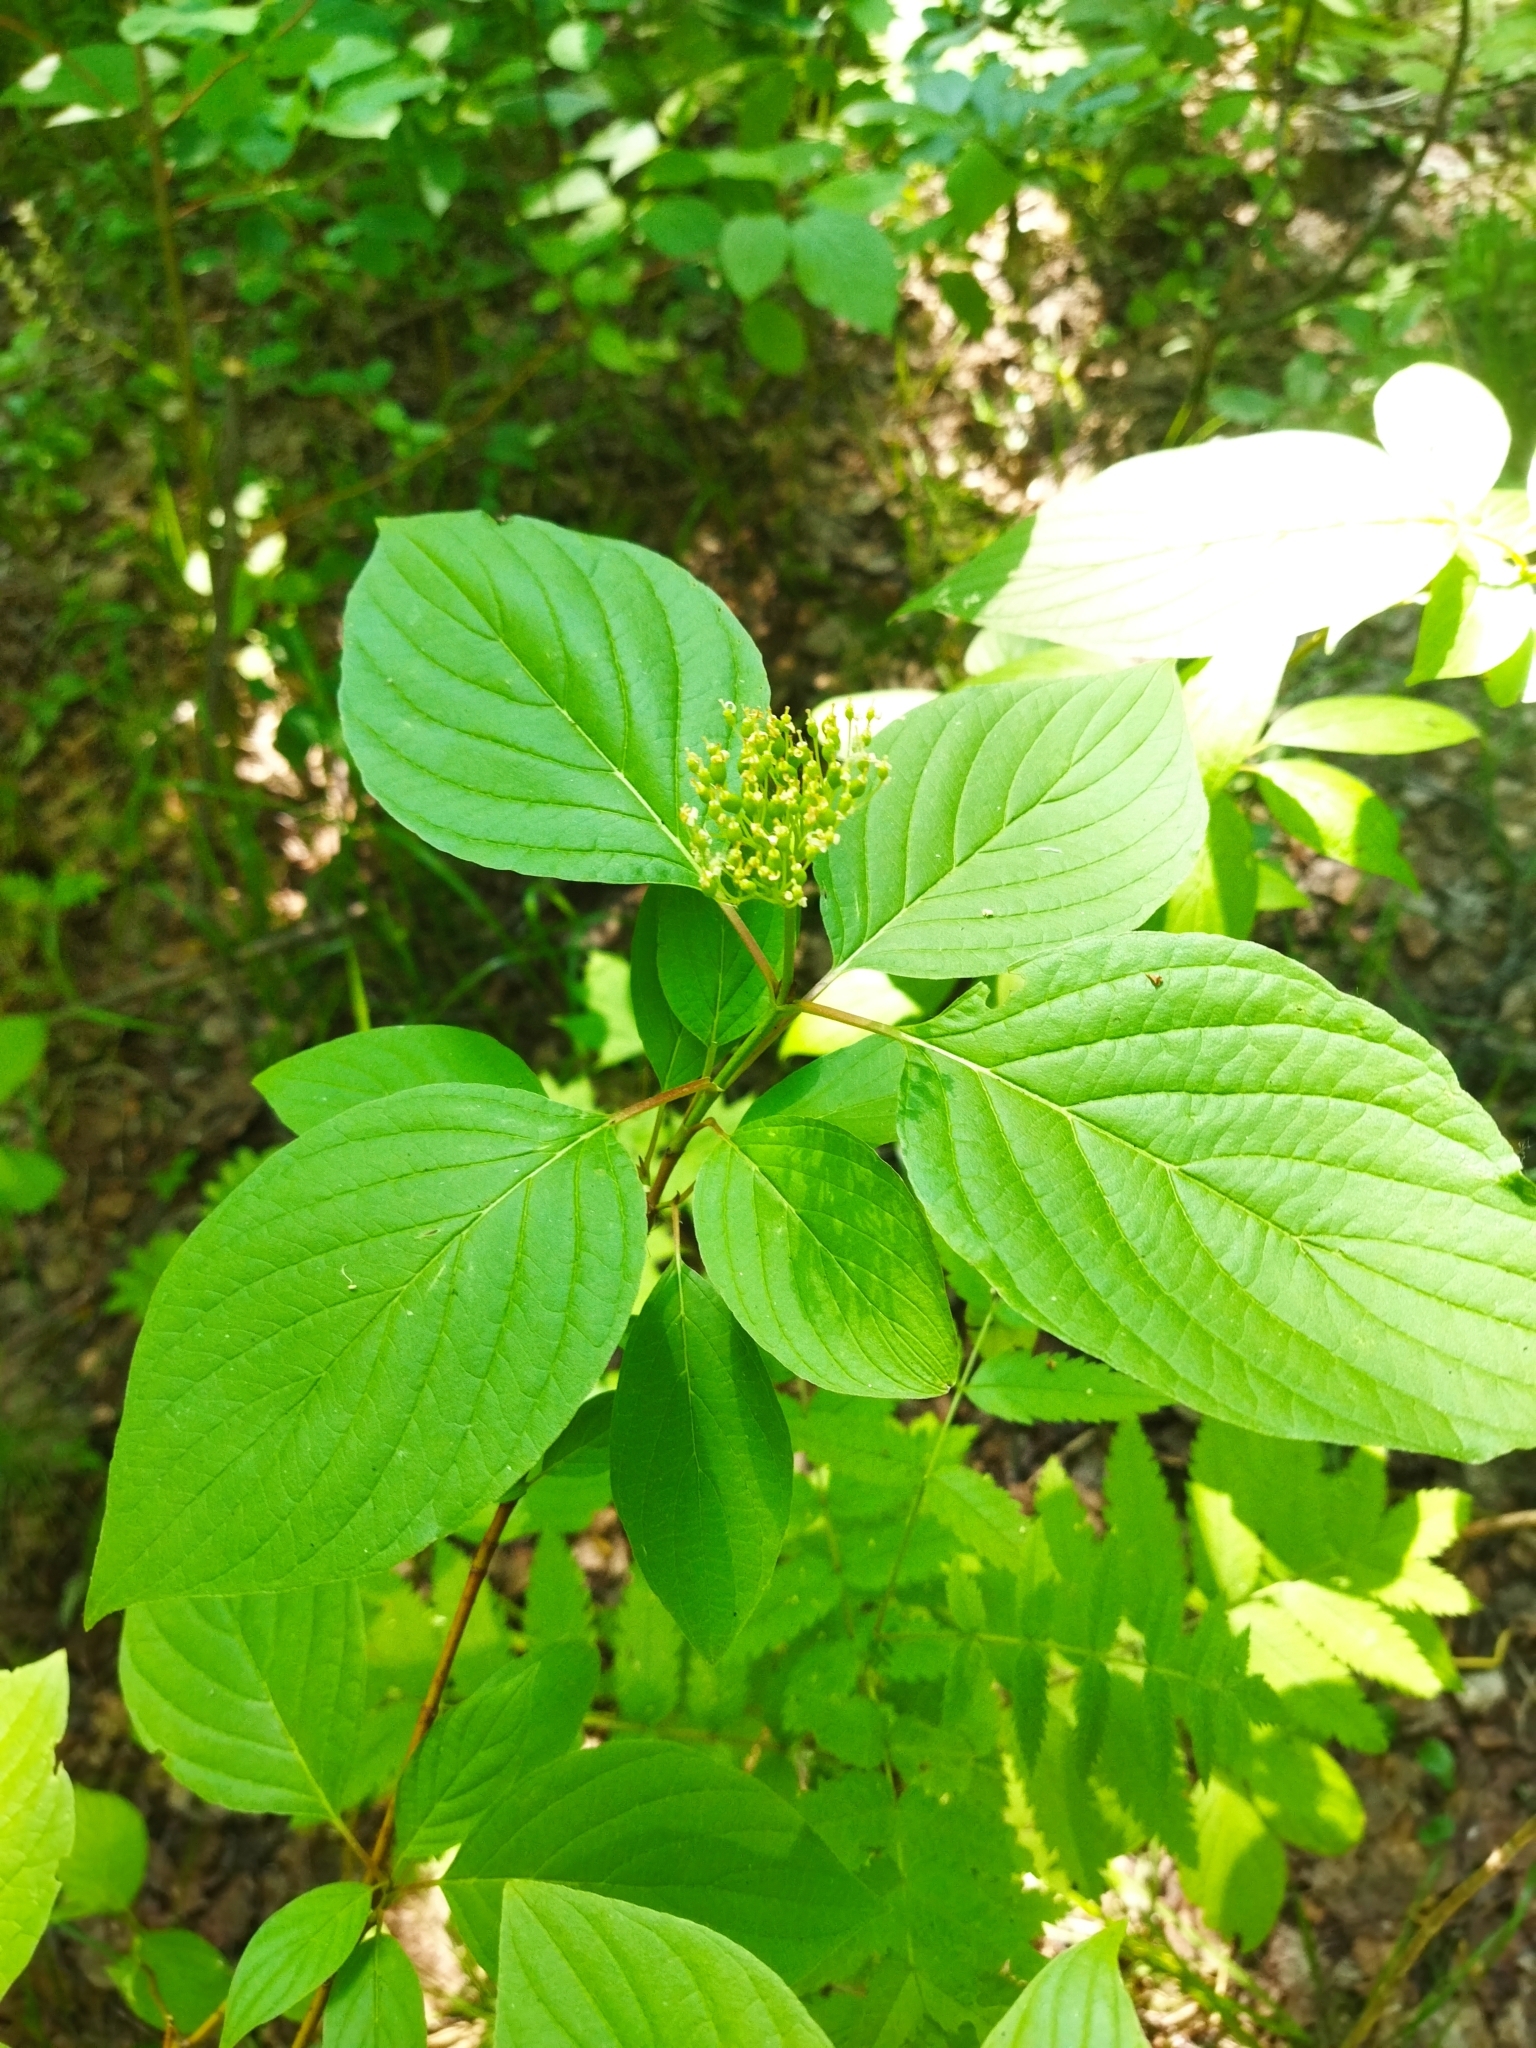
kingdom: Plantae
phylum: Tracheophyta
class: Magnoliopsida
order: Cornales
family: Cornaceae
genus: Cornus
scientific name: Cornus alba
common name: White dogwood
